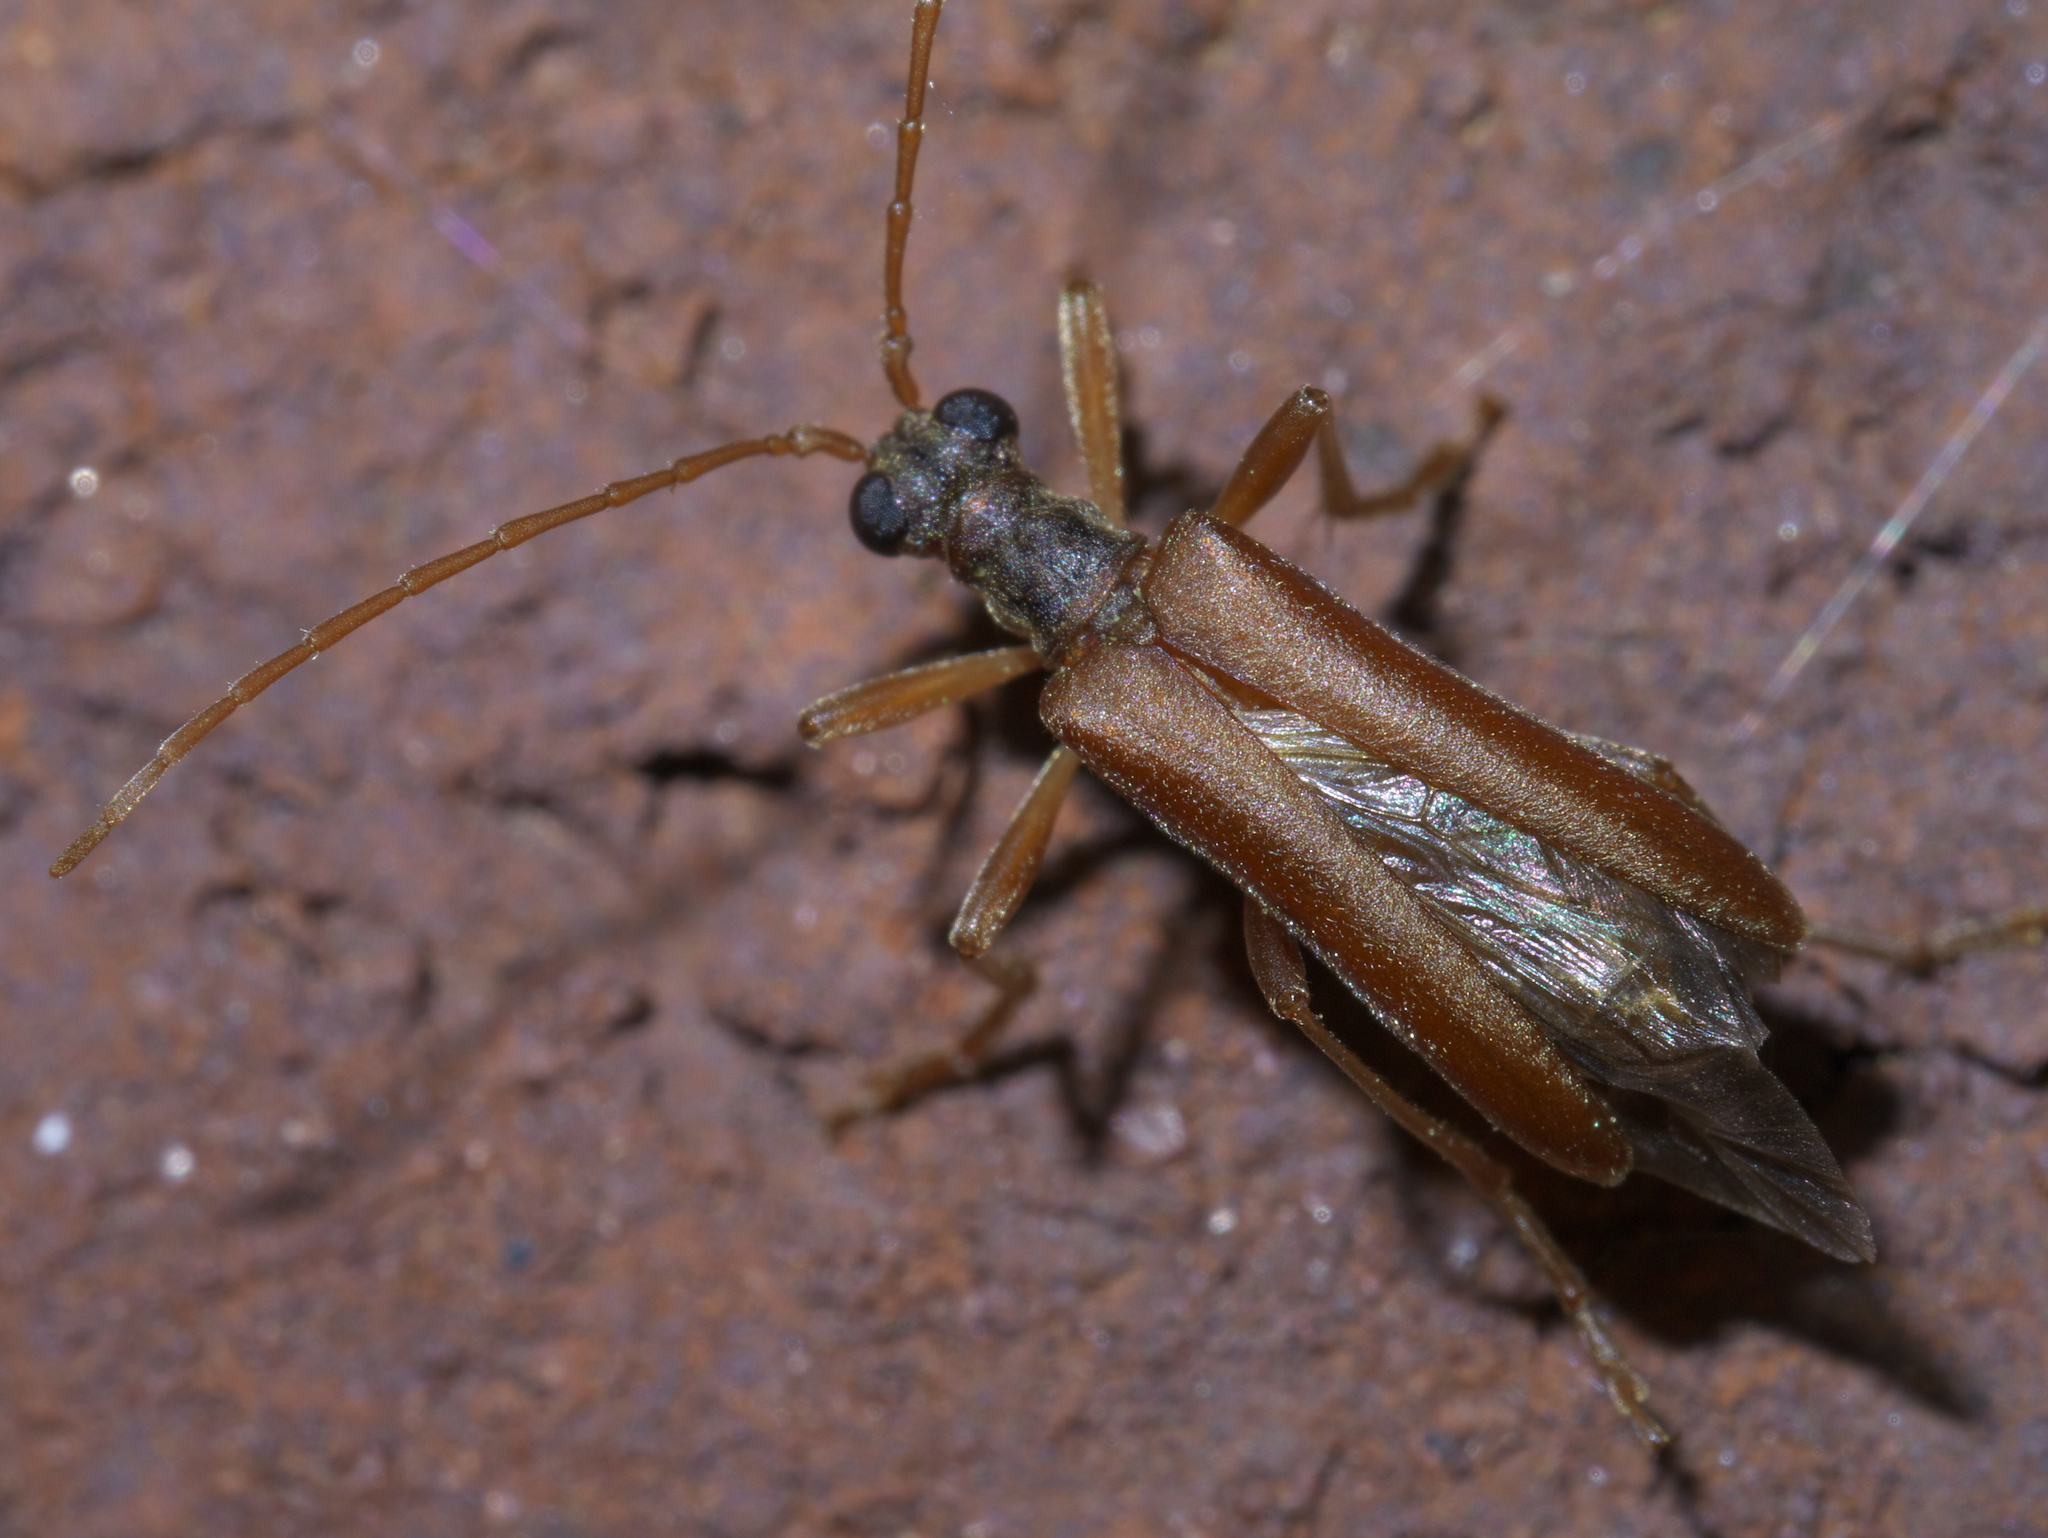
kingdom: Animalia
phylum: Arthropoda
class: Insecta
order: Coleoptera
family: Cerambycidae
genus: Stenocorus
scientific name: Stenocorus cinnamopterus
